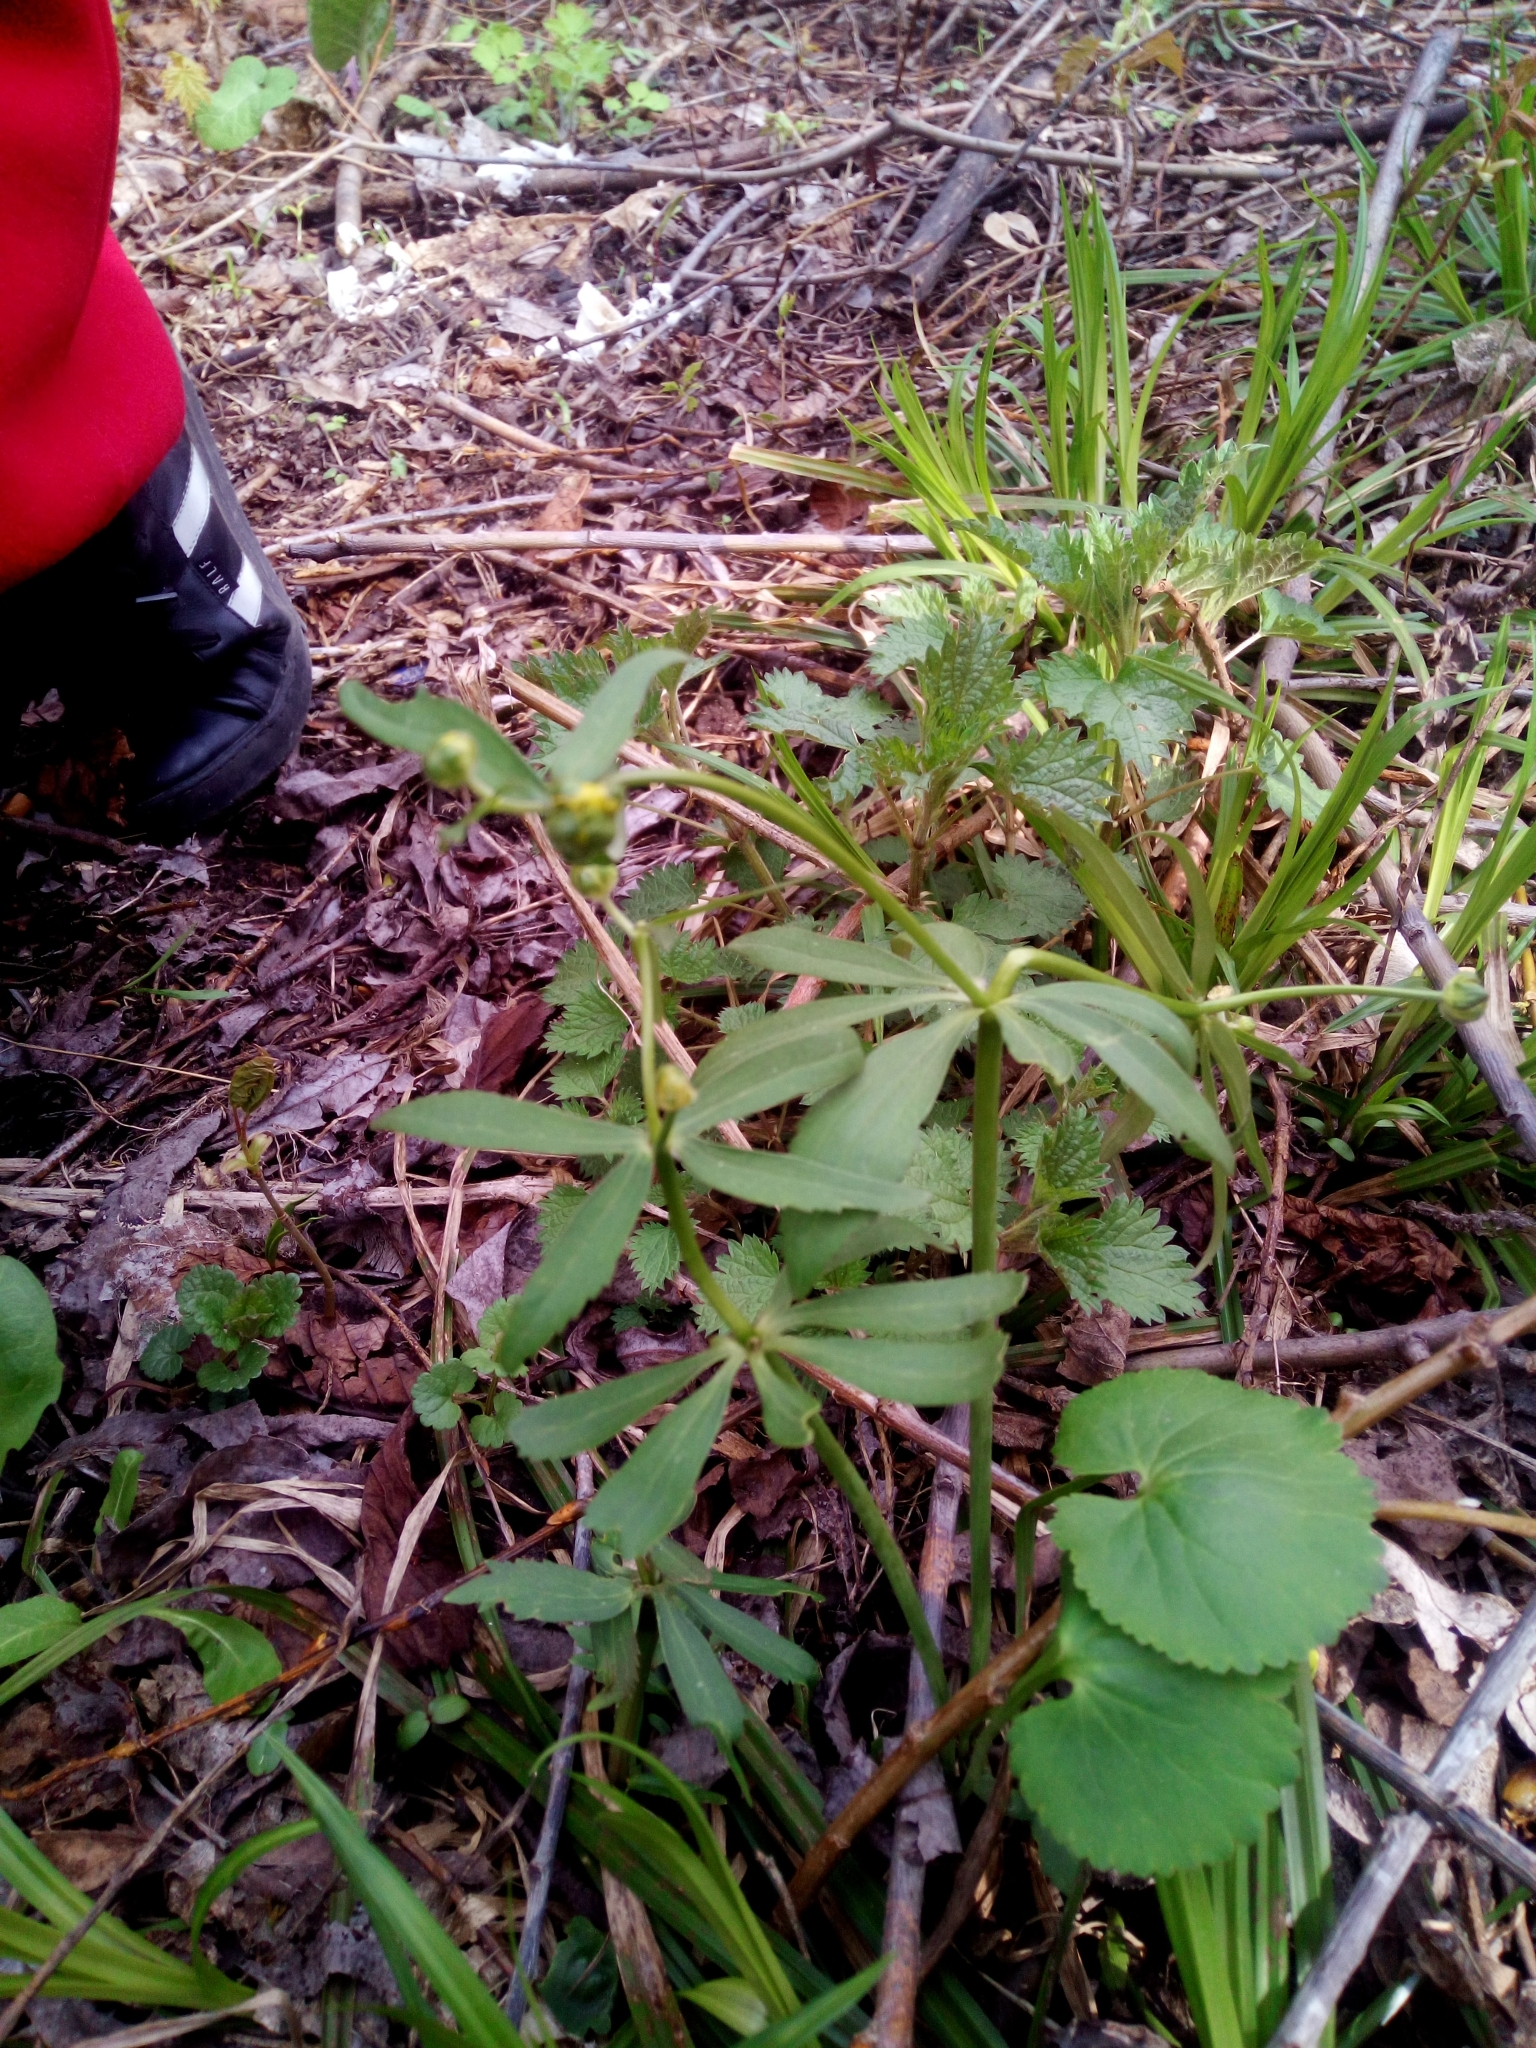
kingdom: Plantae
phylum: Tracheophyta
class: Magnoliopsida
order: Ranunculales
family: Ranunculaceae
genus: Ranunculus
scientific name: Ranunculus cassubicus
